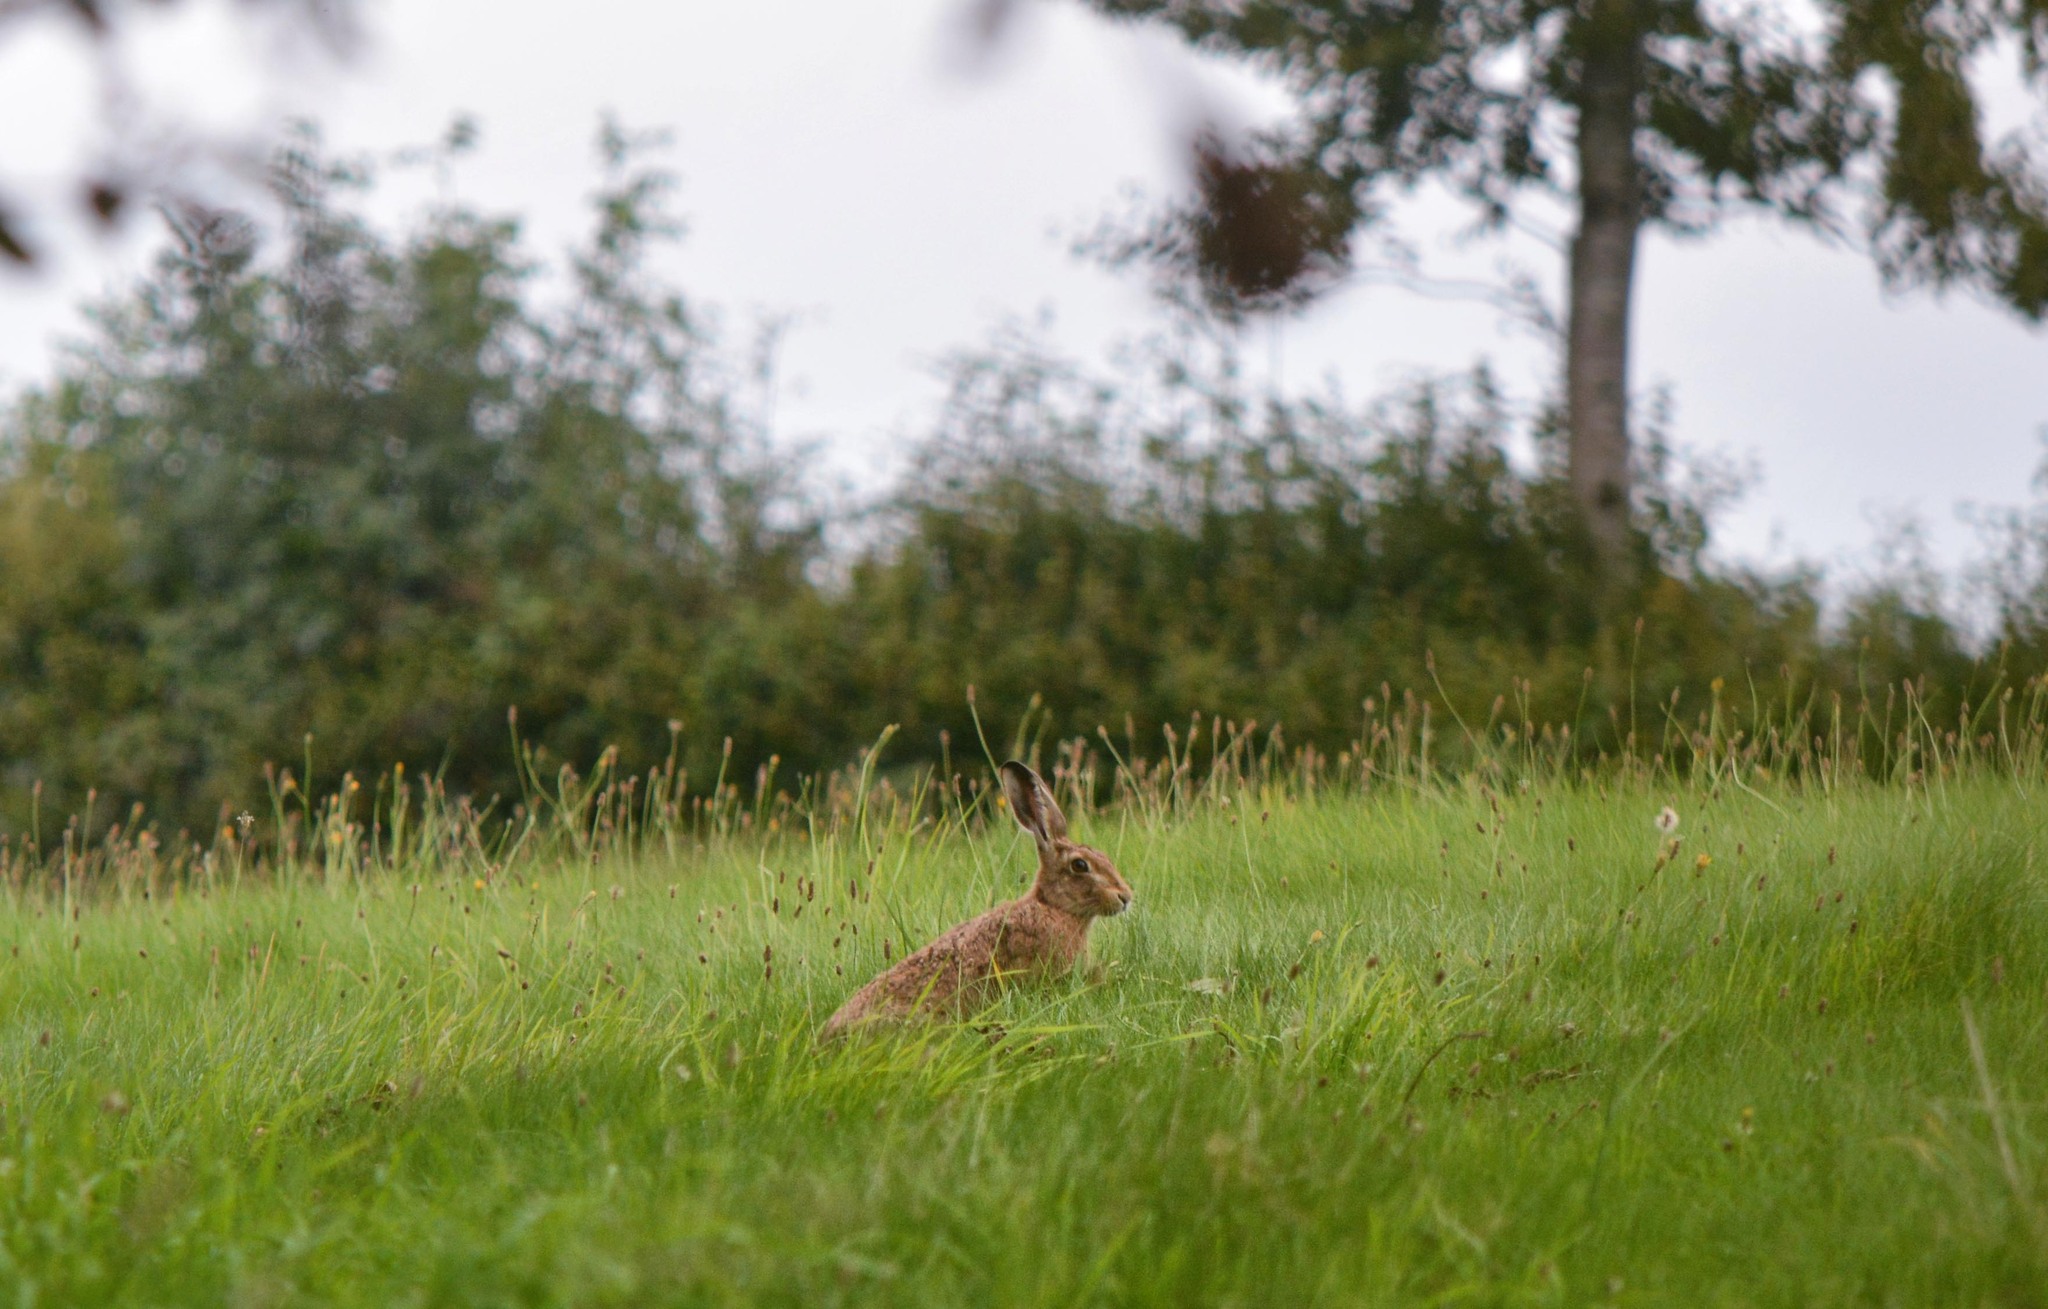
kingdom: Animalia
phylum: Chordata
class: Mammalia
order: Lagomorpha
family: Leporidae
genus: Lepus
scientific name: Lepus europaeus
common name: European hare
